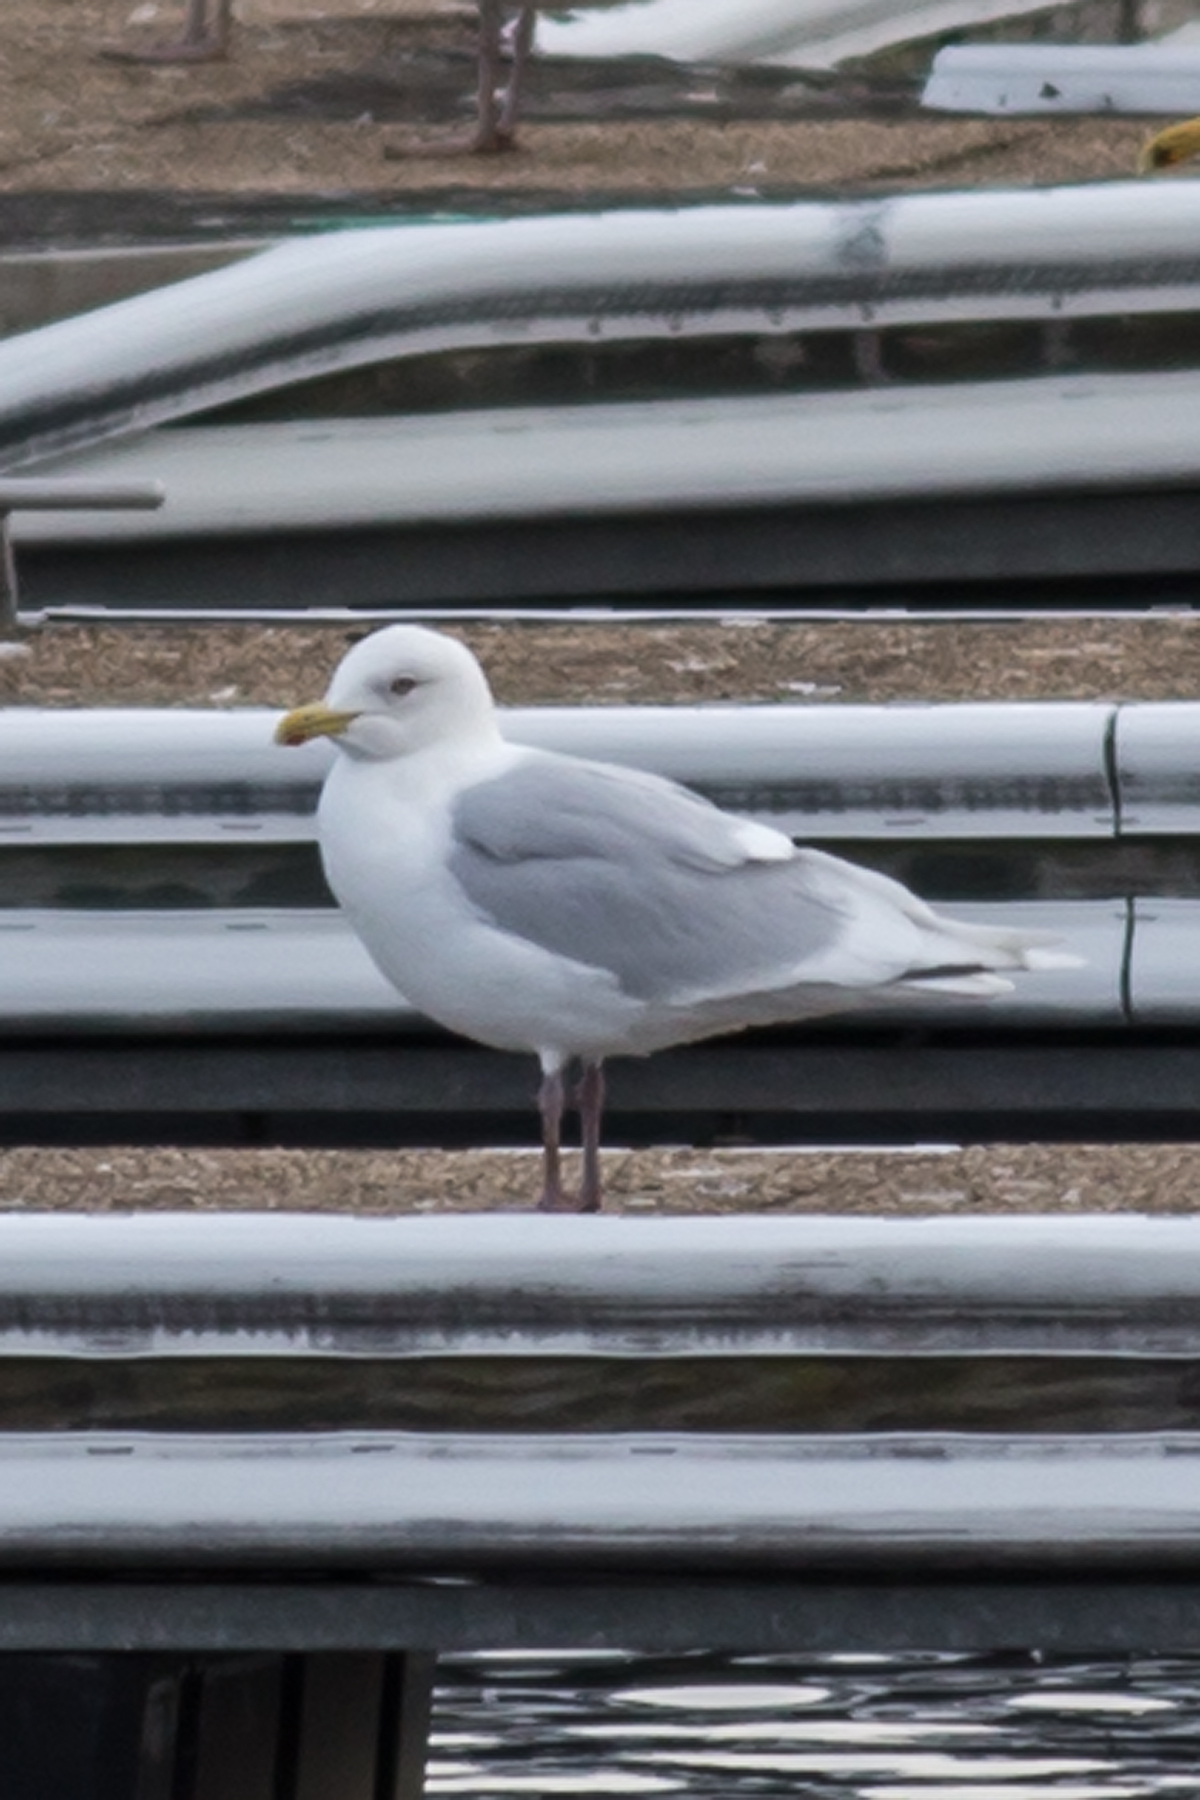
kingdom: Animalia
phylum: Chordata
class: Aves
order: Charadriiformes
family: Laridae
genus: Larus
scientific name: Larus glaucoides
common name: Iceland gull
